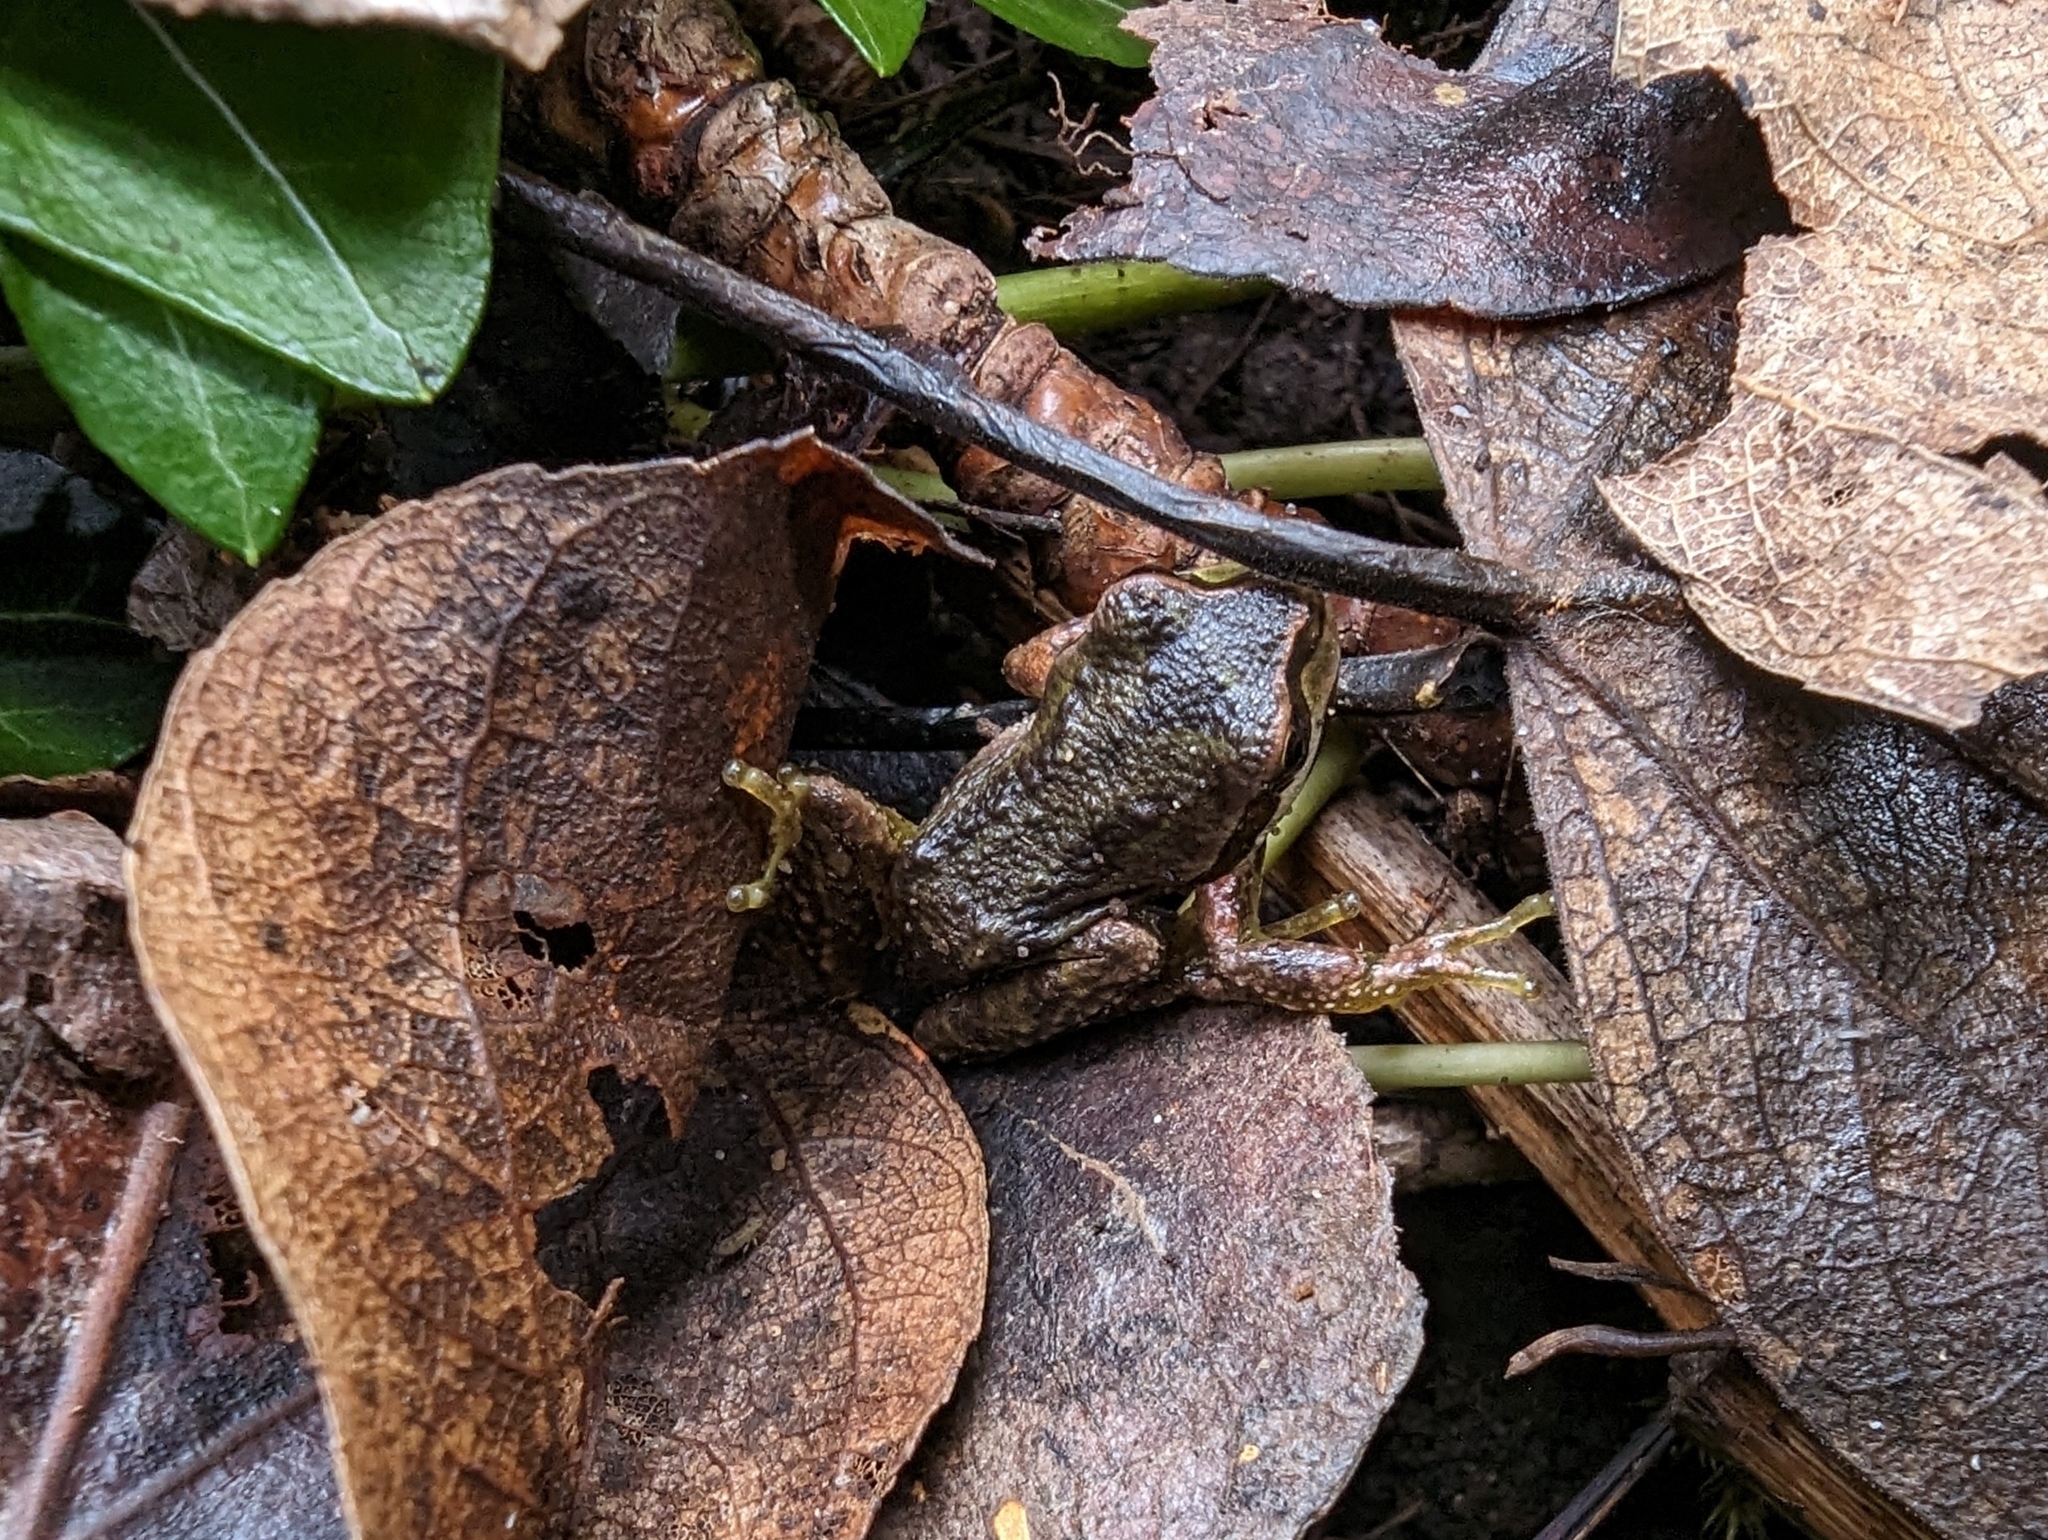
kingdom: Animalia
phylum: Chordata
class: Amphibia
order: Anura
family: Hylidae
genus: Pseudacris
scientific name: Pseudacris regilla
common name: Pacific chorus frog
